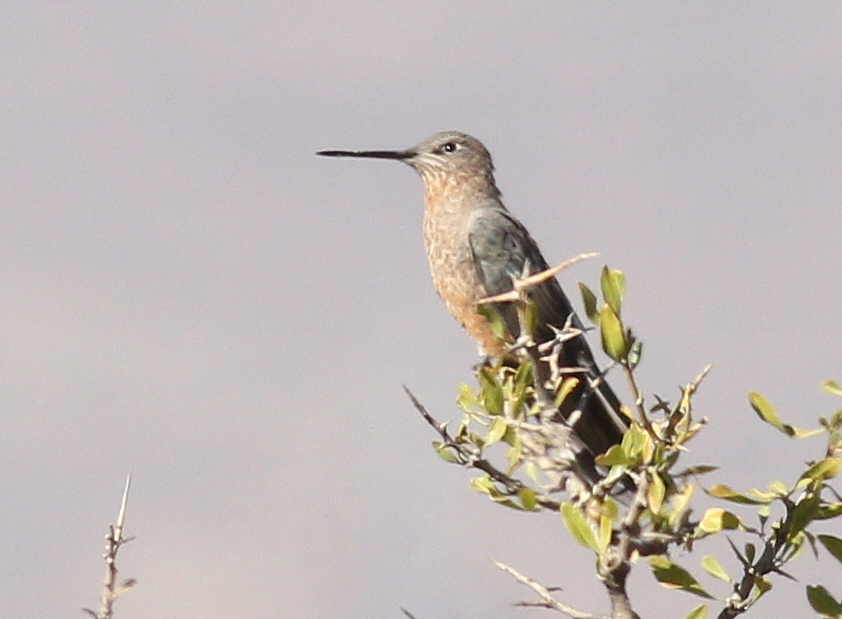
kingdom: Animalia
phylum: Chordata
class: Aves
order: Apodiformes
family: Trochilidae
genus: Patagona
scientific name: Patagona gigas
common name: Giant hummingbird
